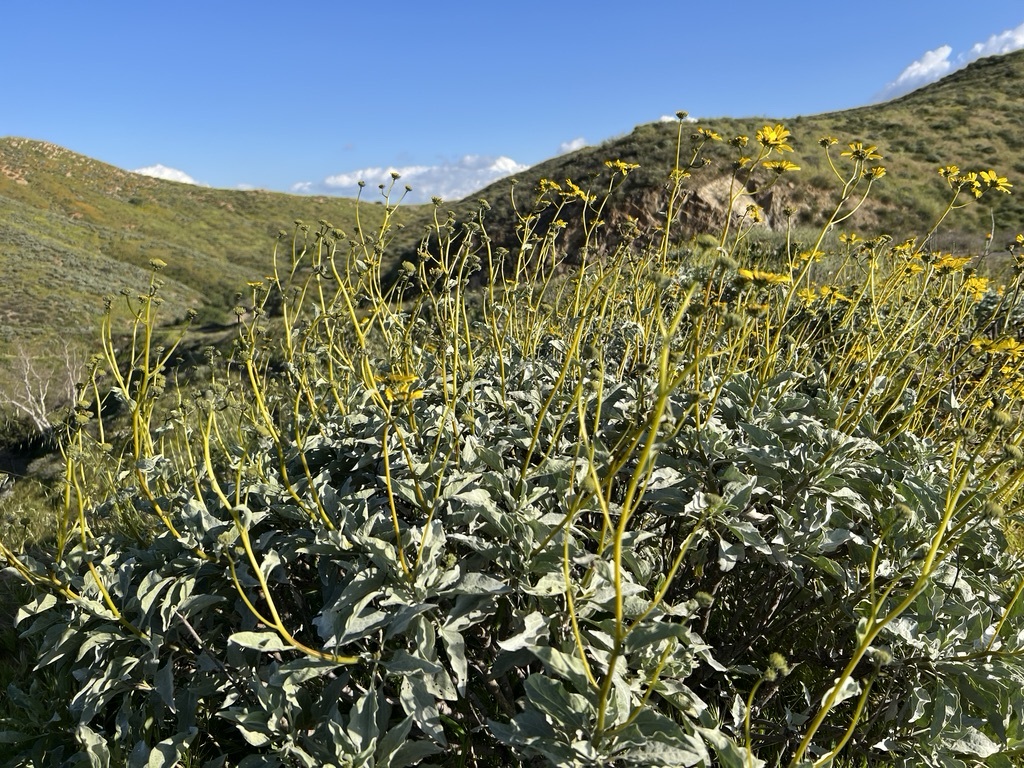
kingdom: Plantae
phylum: Tracheophyta
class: Magnoliopsida
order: Asterales
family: Asteraceae
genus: Encelia
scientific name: Encelia farinosa
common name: Brittlebush
